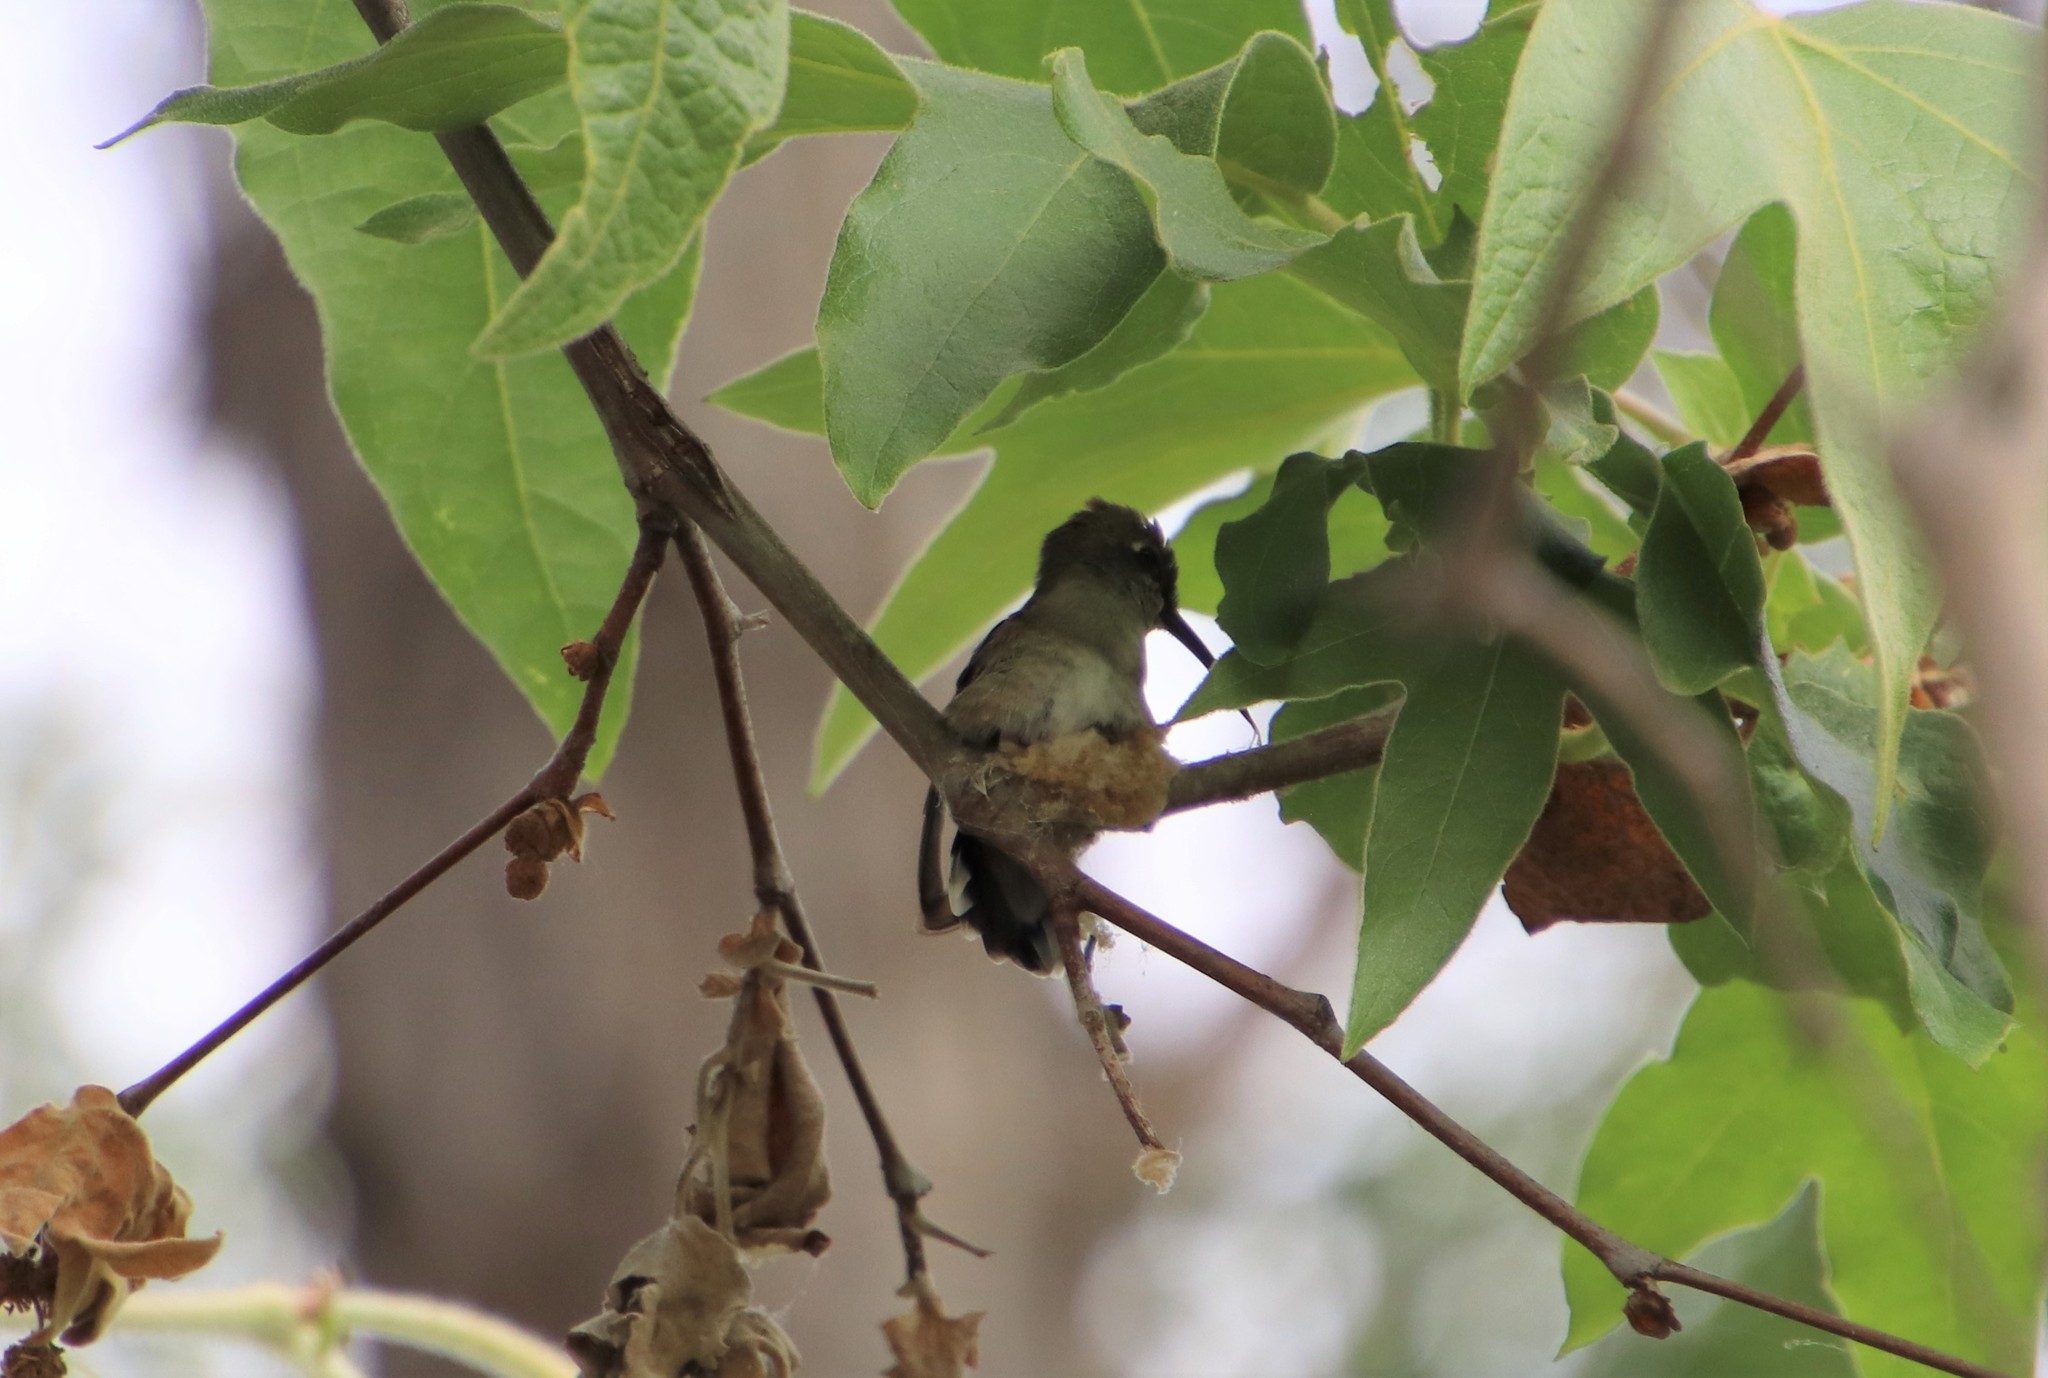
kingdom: Animalia
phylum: Chordata
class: Aves
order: Apodiformes
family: Trochilidae
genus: Archilochus
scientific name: Archilochus alexandri
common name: Black-chinned hummingbird
